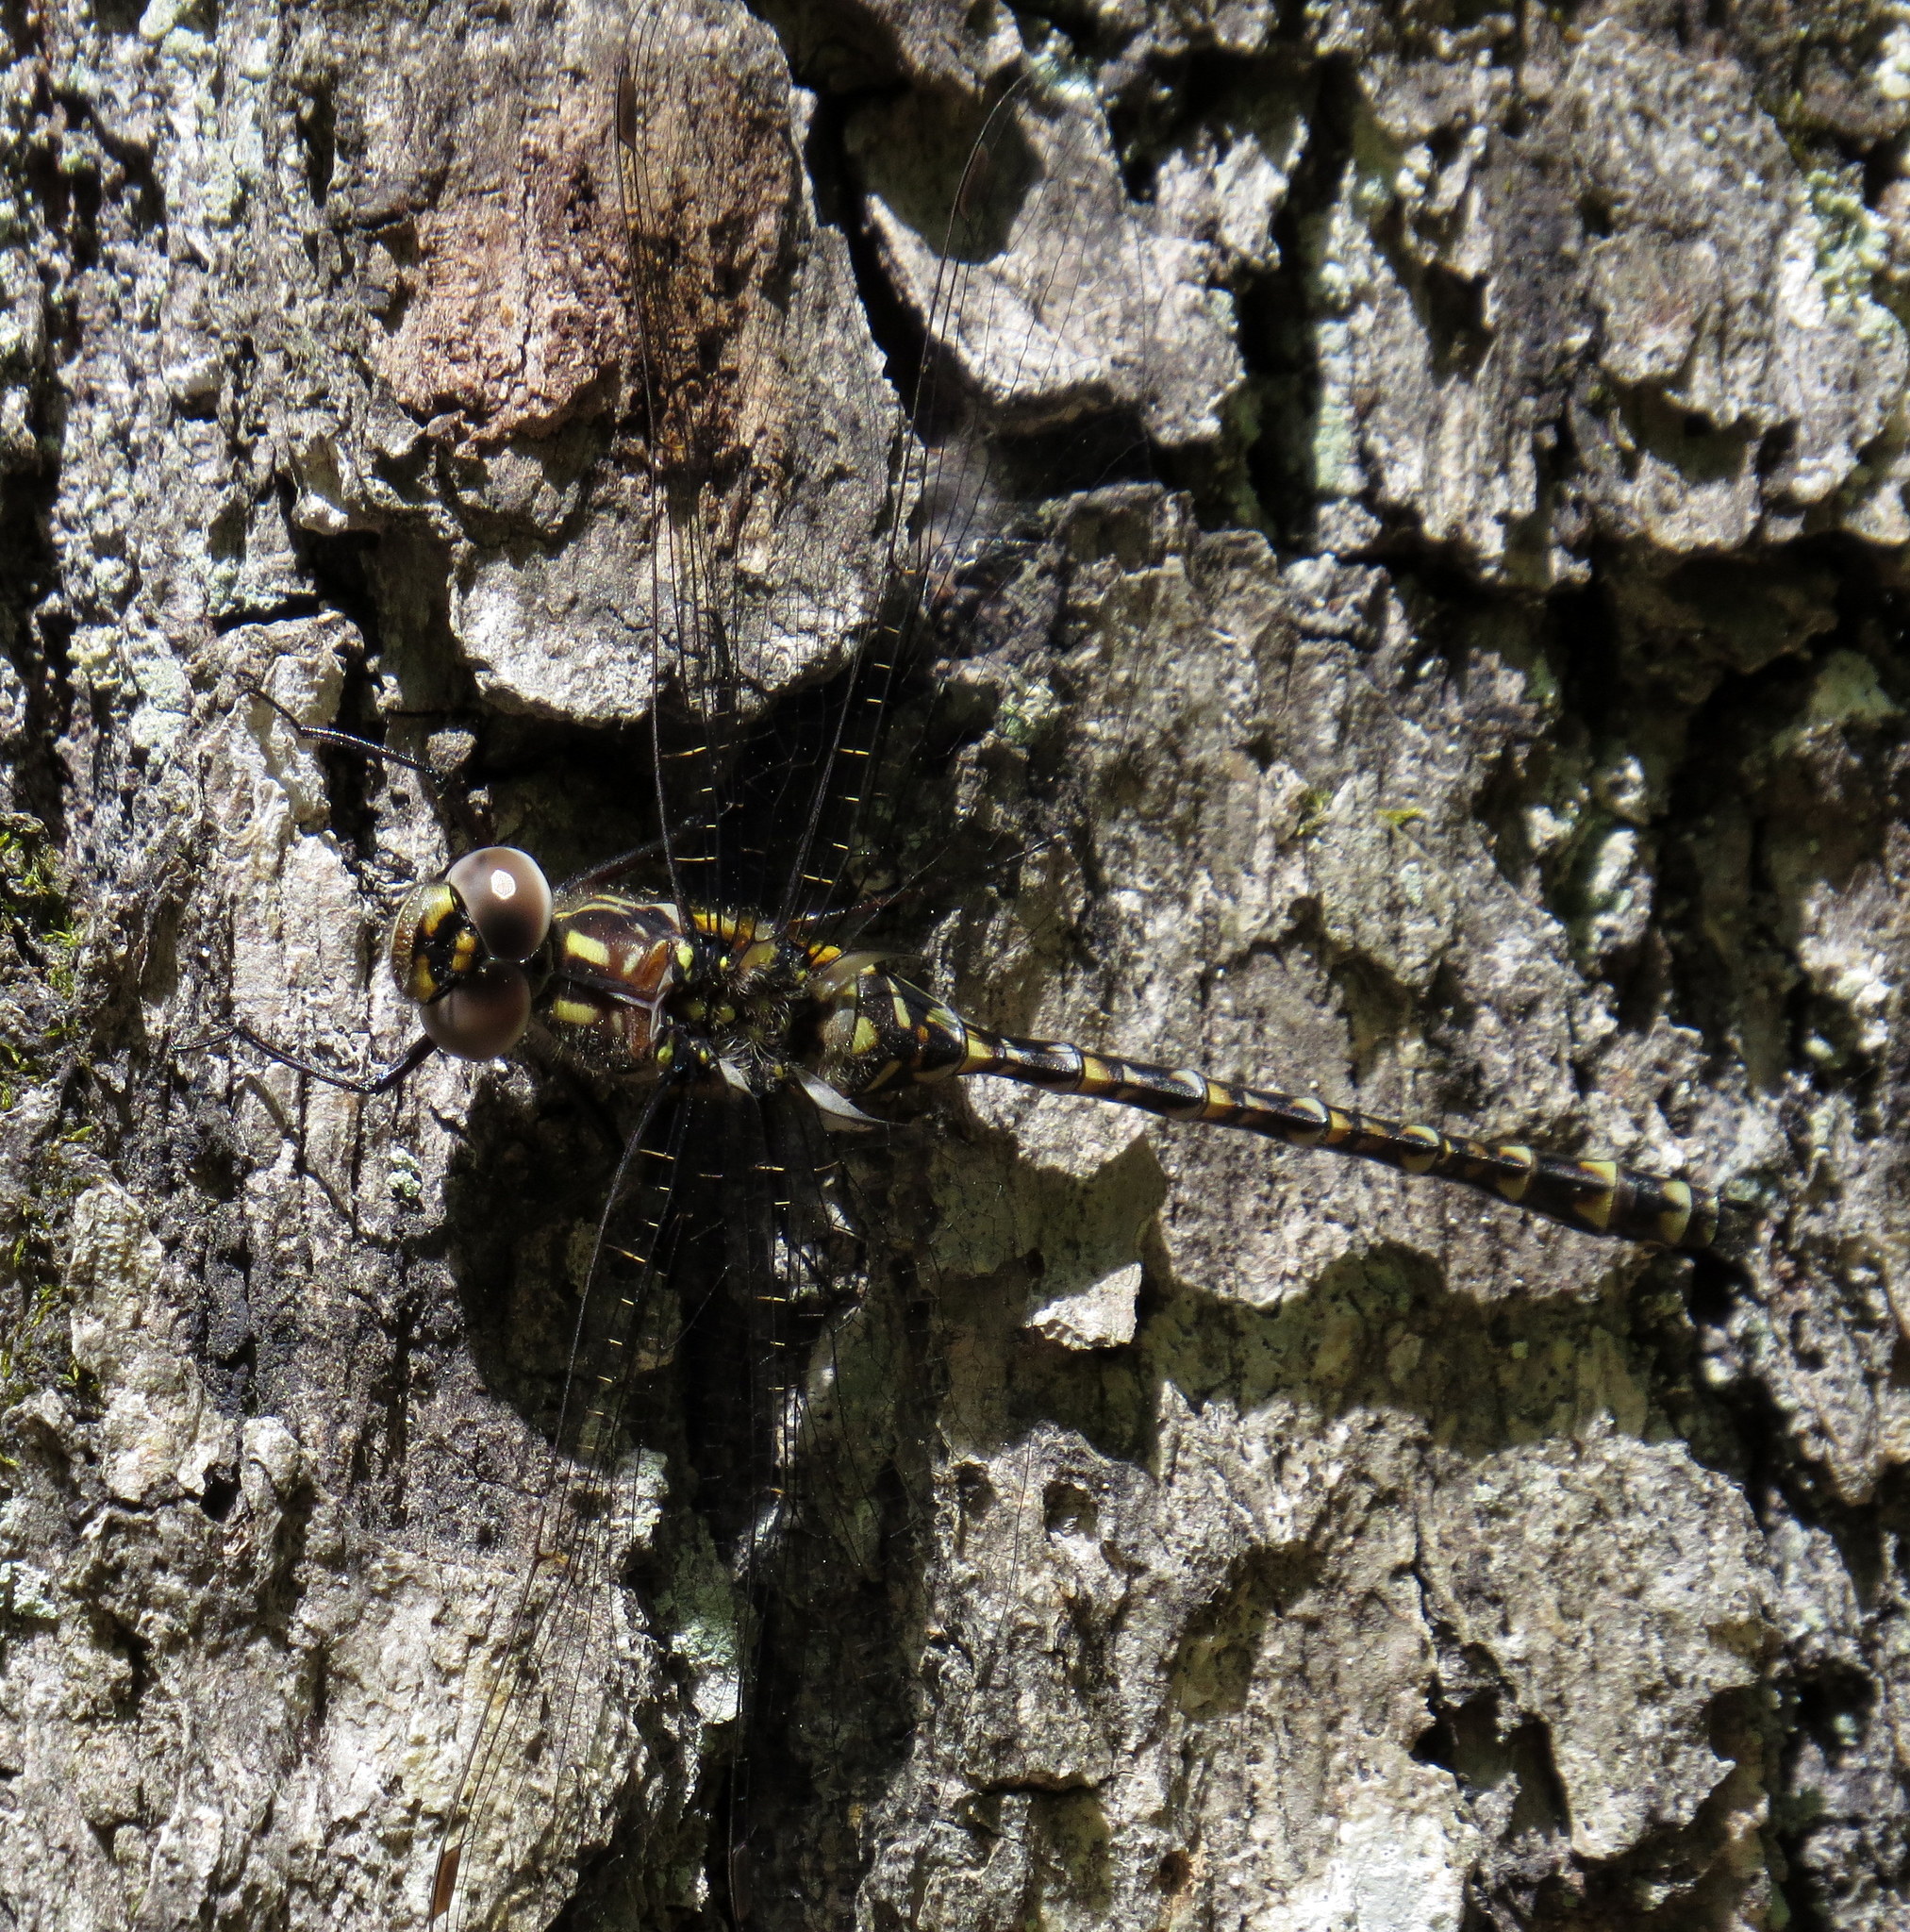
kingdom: Animalia
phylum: Arthropoda
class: Insecta
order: Odonata
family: Aeshnidae
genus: Gomphaeschna
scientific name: Gomphaeschna furcillata
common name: Harlequin darner
